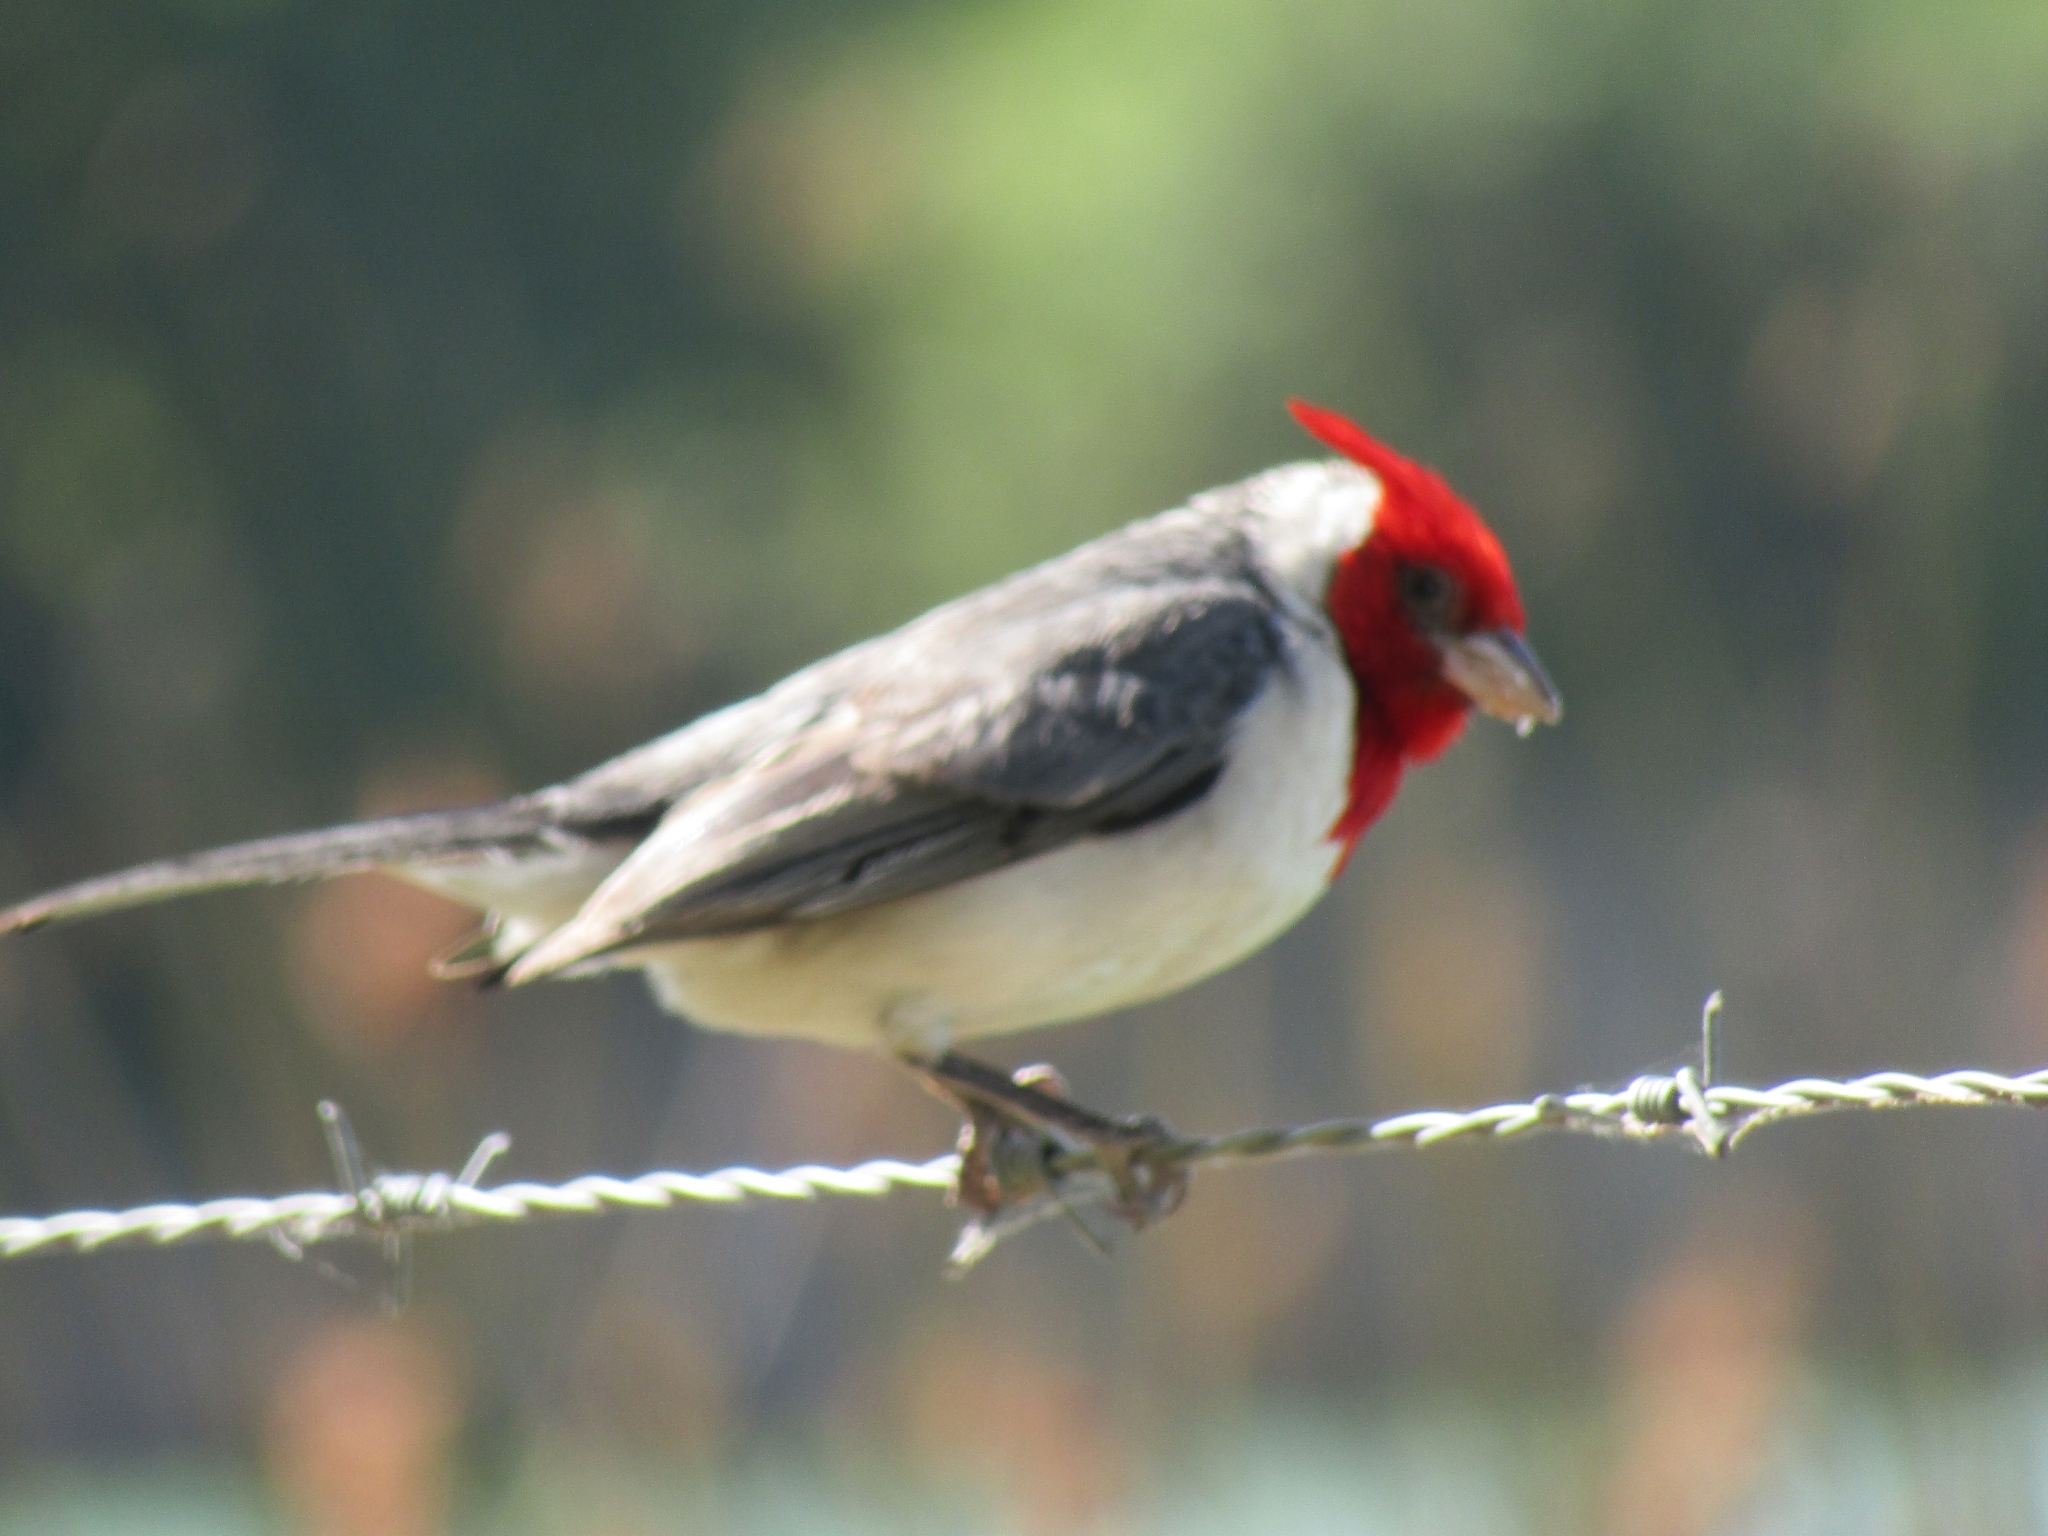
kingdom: Animalia
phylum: Chordata
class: Aves
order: Passeriformes
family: Thraupidae
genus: Paroaria
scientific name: Paroaria coronata
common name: Red-crested cardinal
